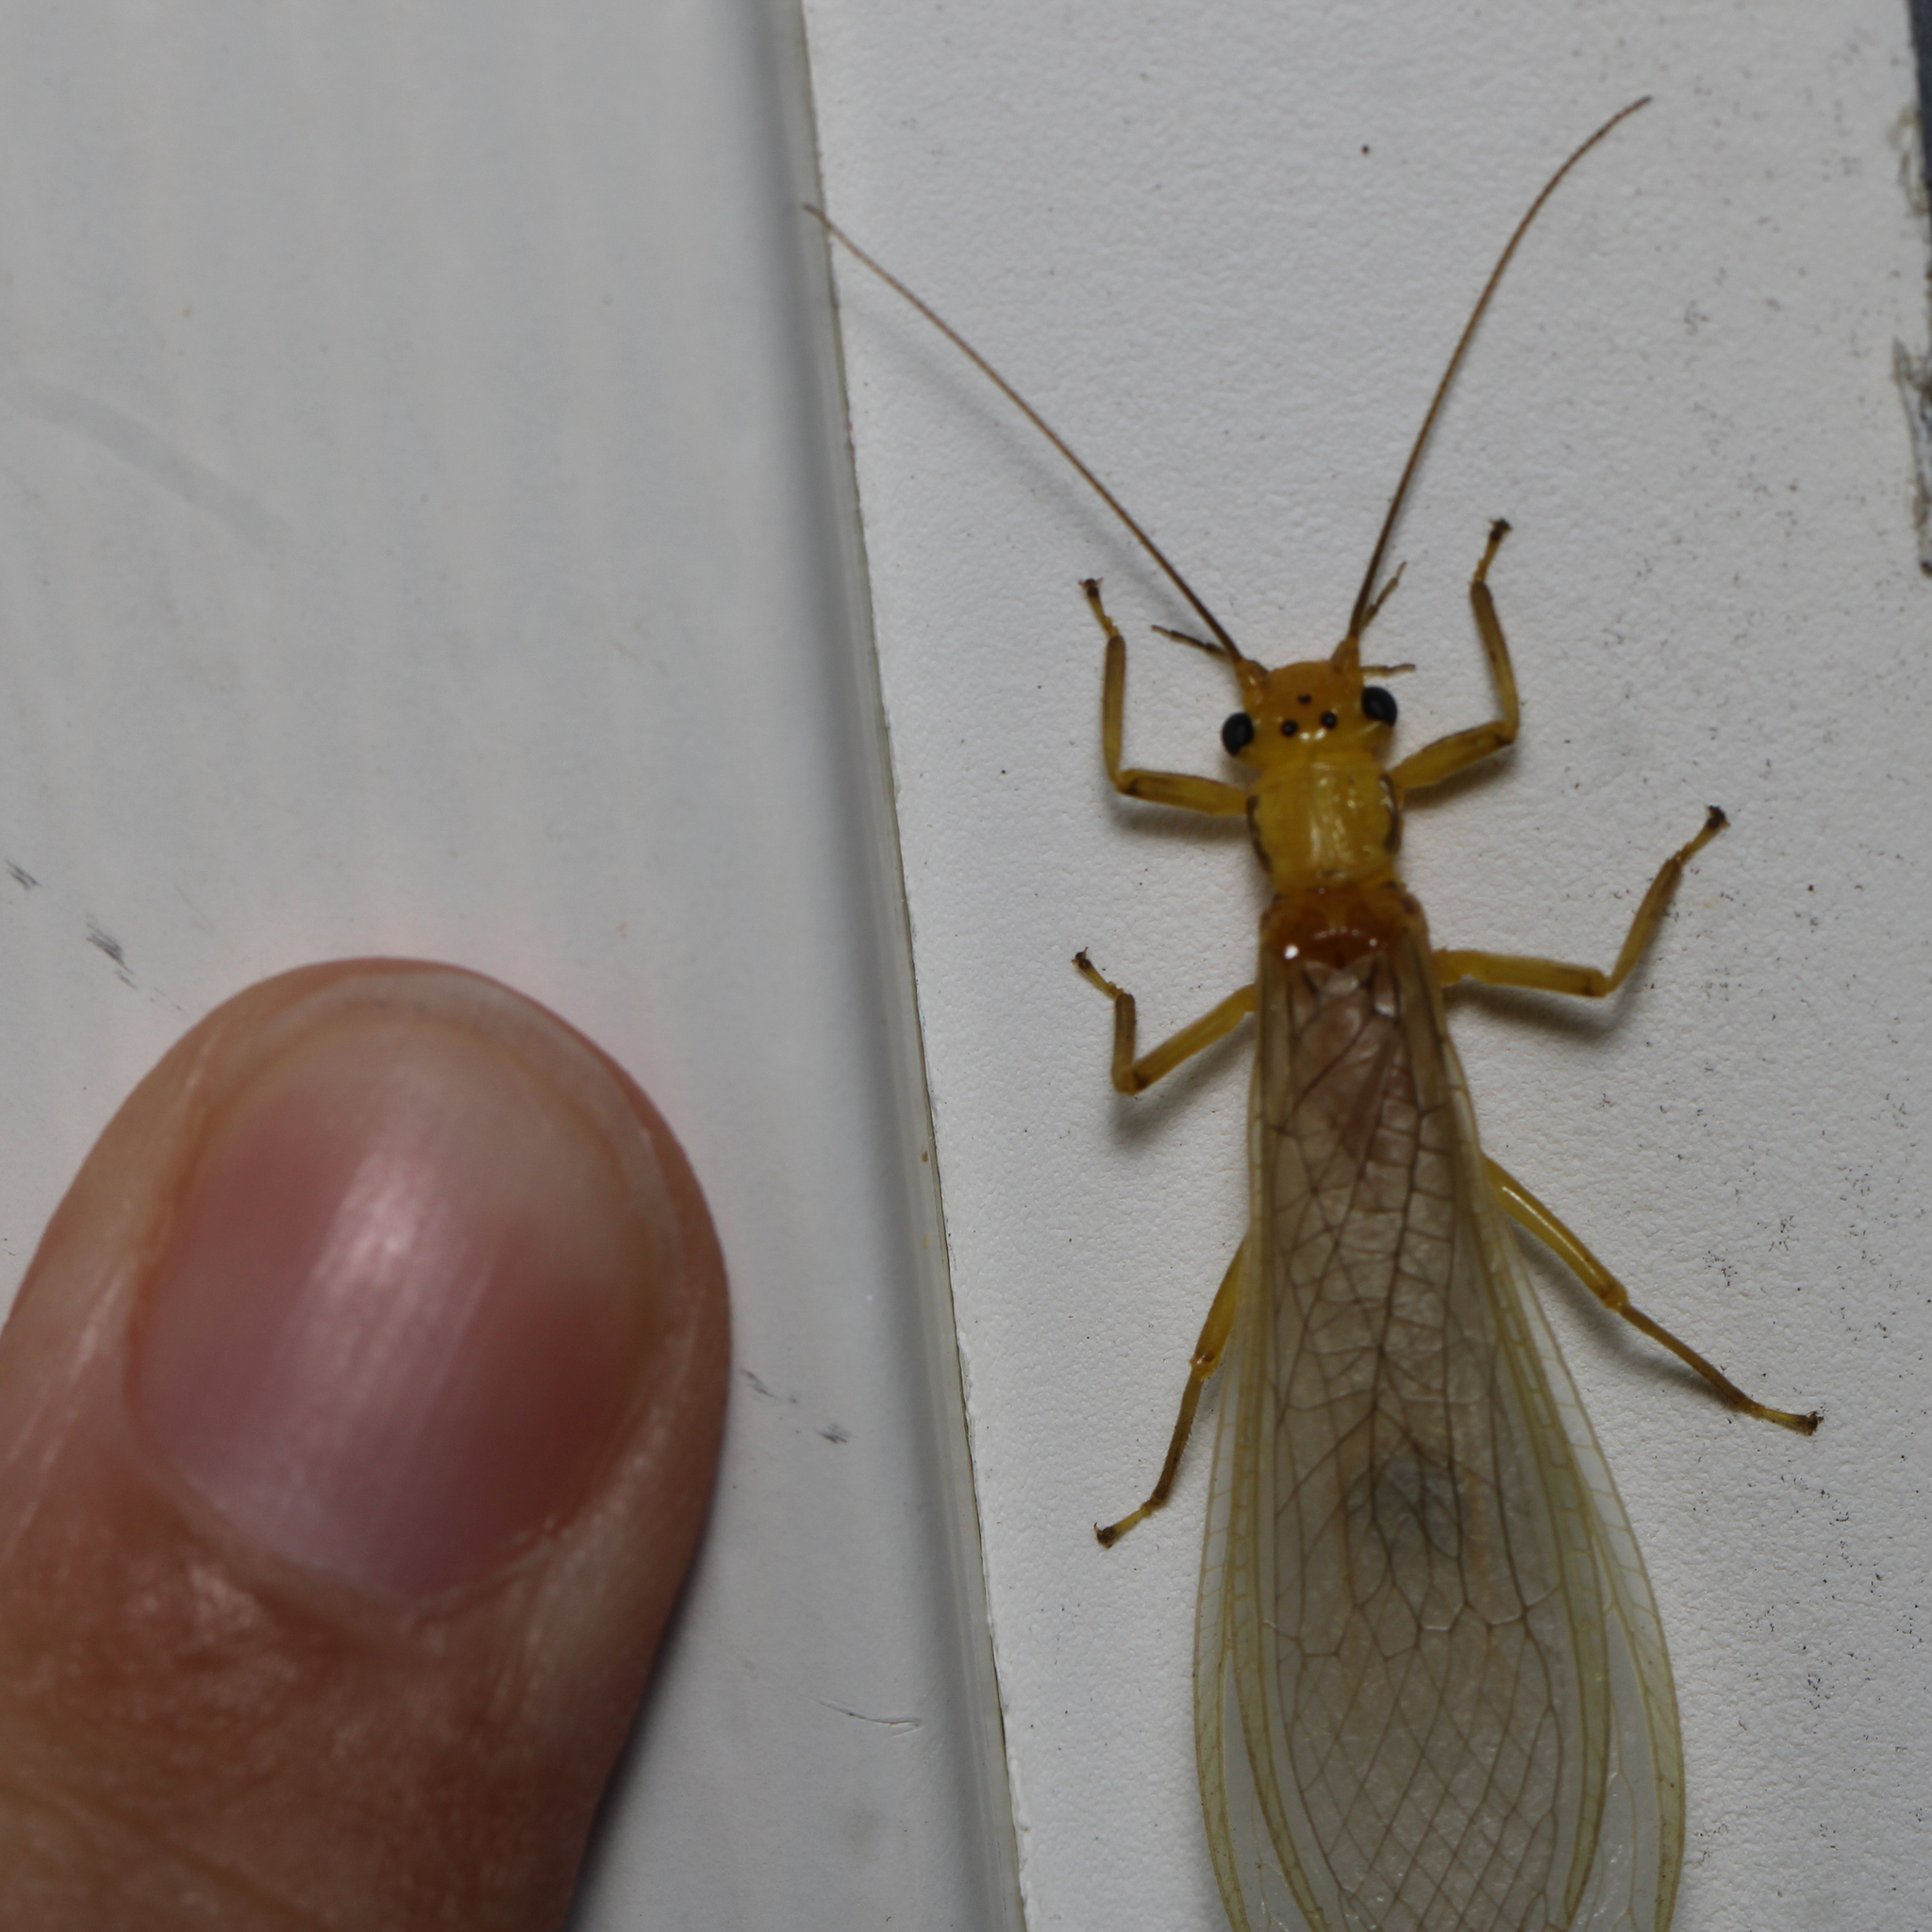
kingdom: Animalia
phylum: Arthropoda
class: Insecta
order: Plecoptera
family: Perlidae
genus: Eccoptura
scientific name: Eccoptura xanthenes
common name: Yellow stone
